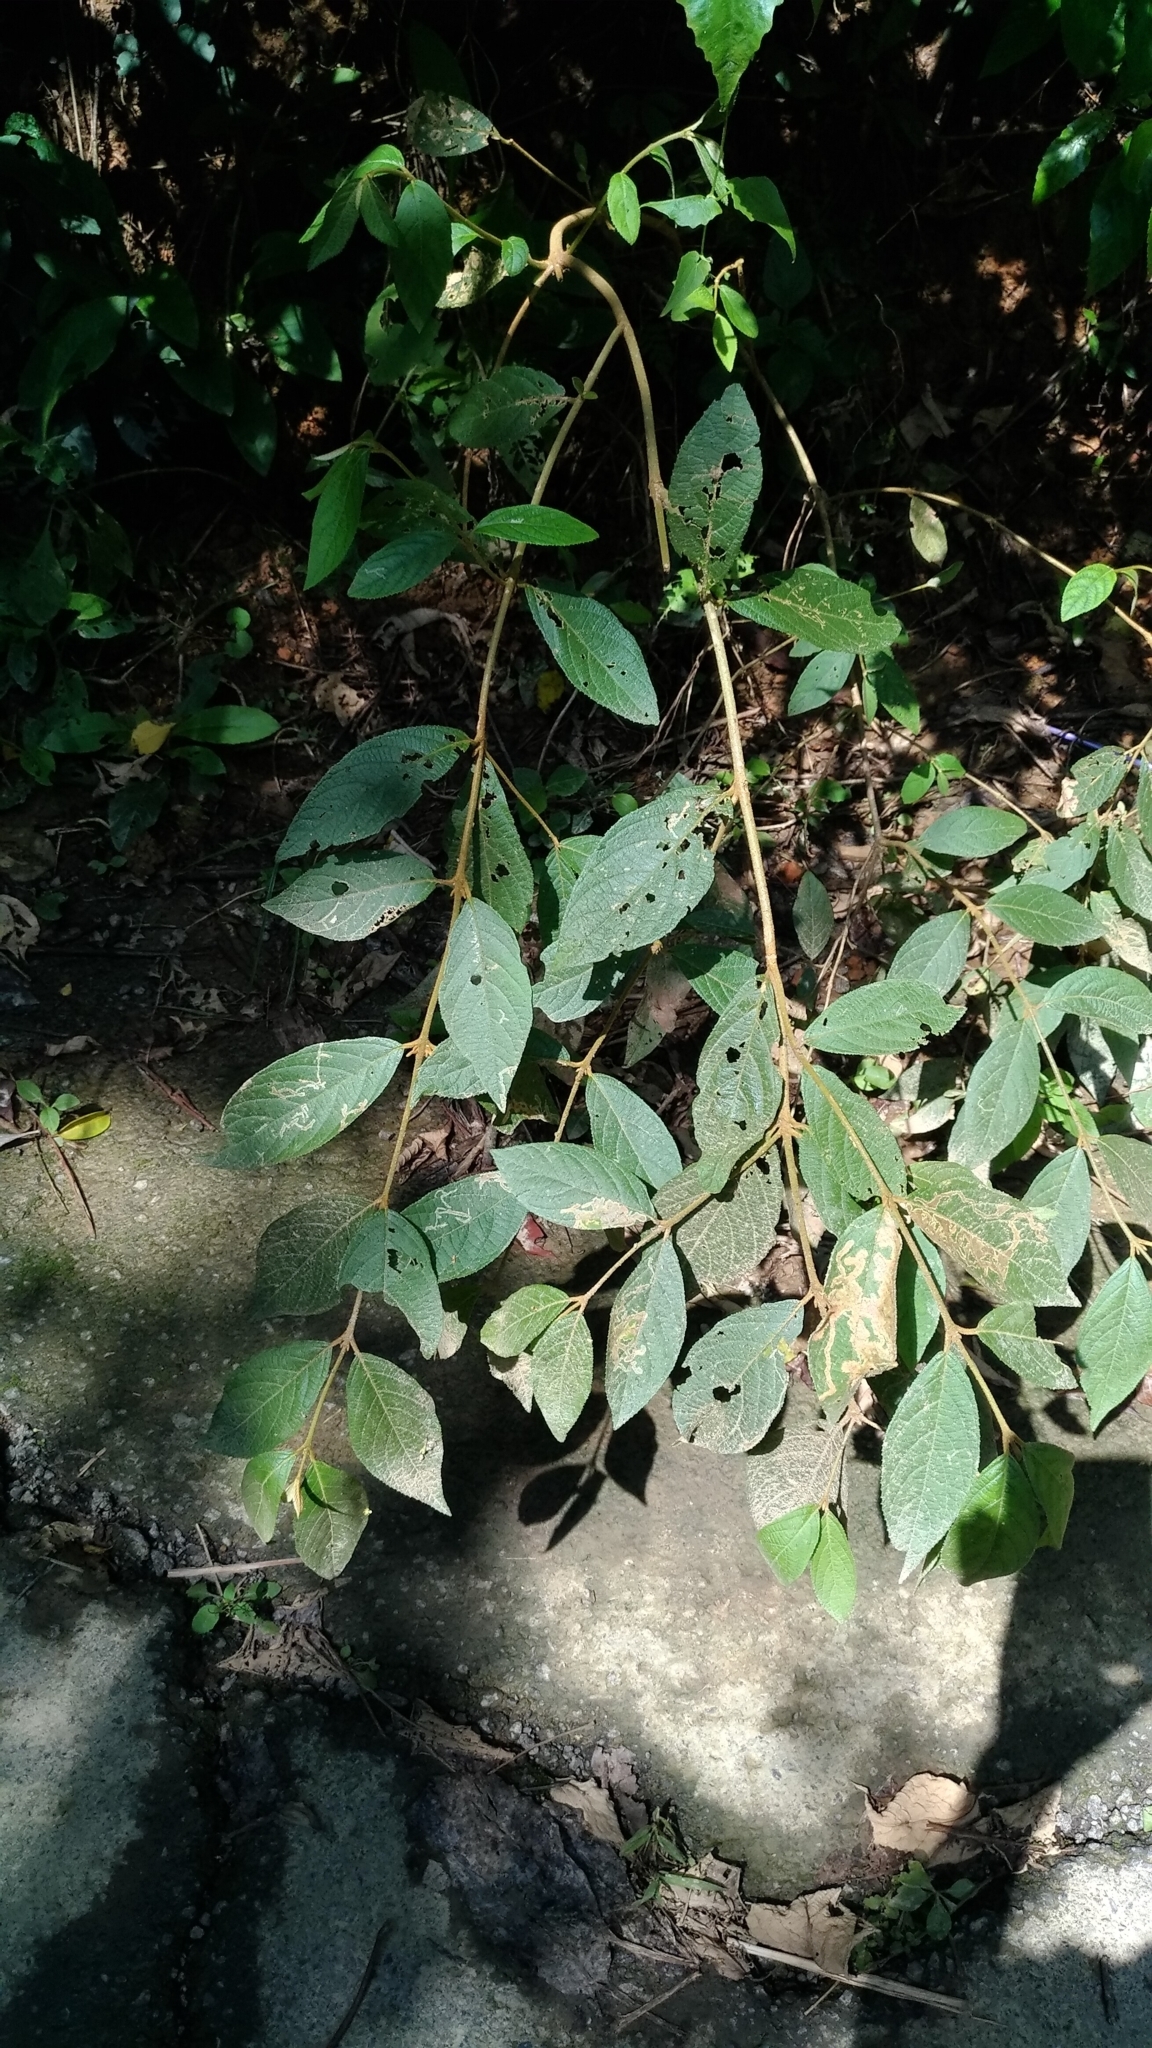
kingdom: Plantae
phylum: Tracheophyta
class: Magnoliopsida
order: Lamiales
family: Lamiaceae
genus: Callicarpa
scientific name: Callicarpa pedunculata
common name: Velvetleaf
